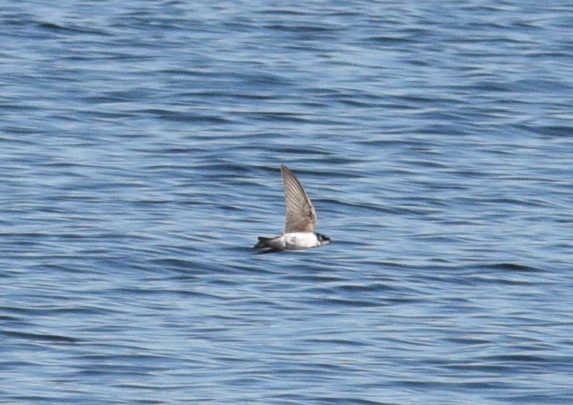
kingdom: Animalia
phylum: Chordata
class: Aves
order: Passeriformes
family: Hirundinidae
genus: Tachycineta
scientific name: Tachycineta bicolor
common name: Tree swallow
